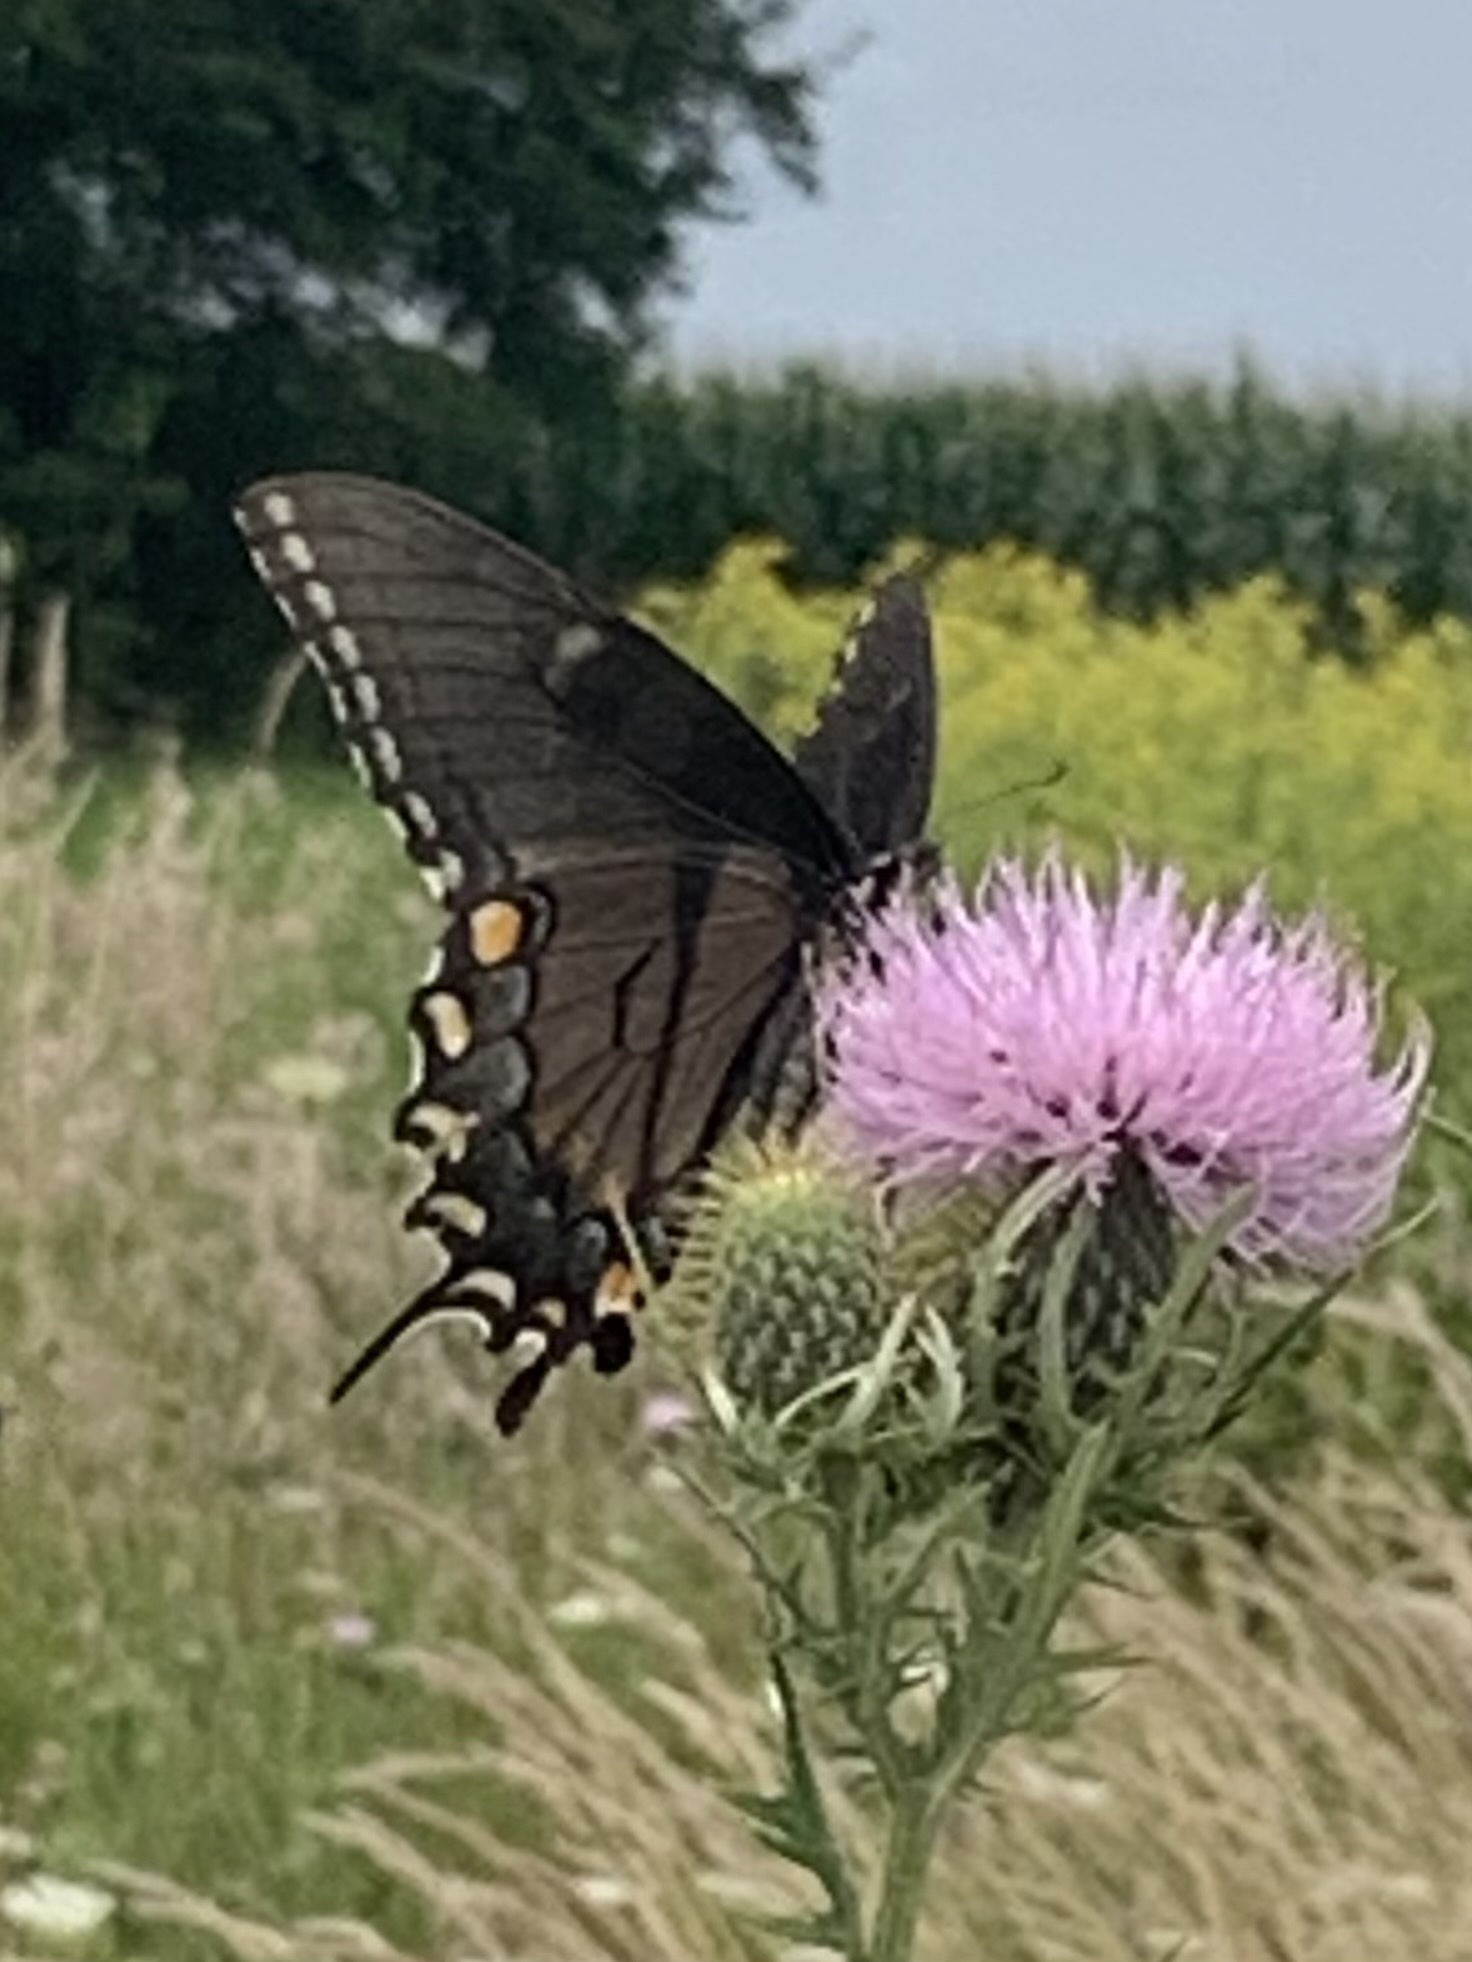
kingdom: Animalia
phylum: Arthropoda
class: Insecta
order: Lepidoptera
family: Papilionidae
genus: Papilio
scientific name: Papilio glaucus
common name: Tiger swallowtail
